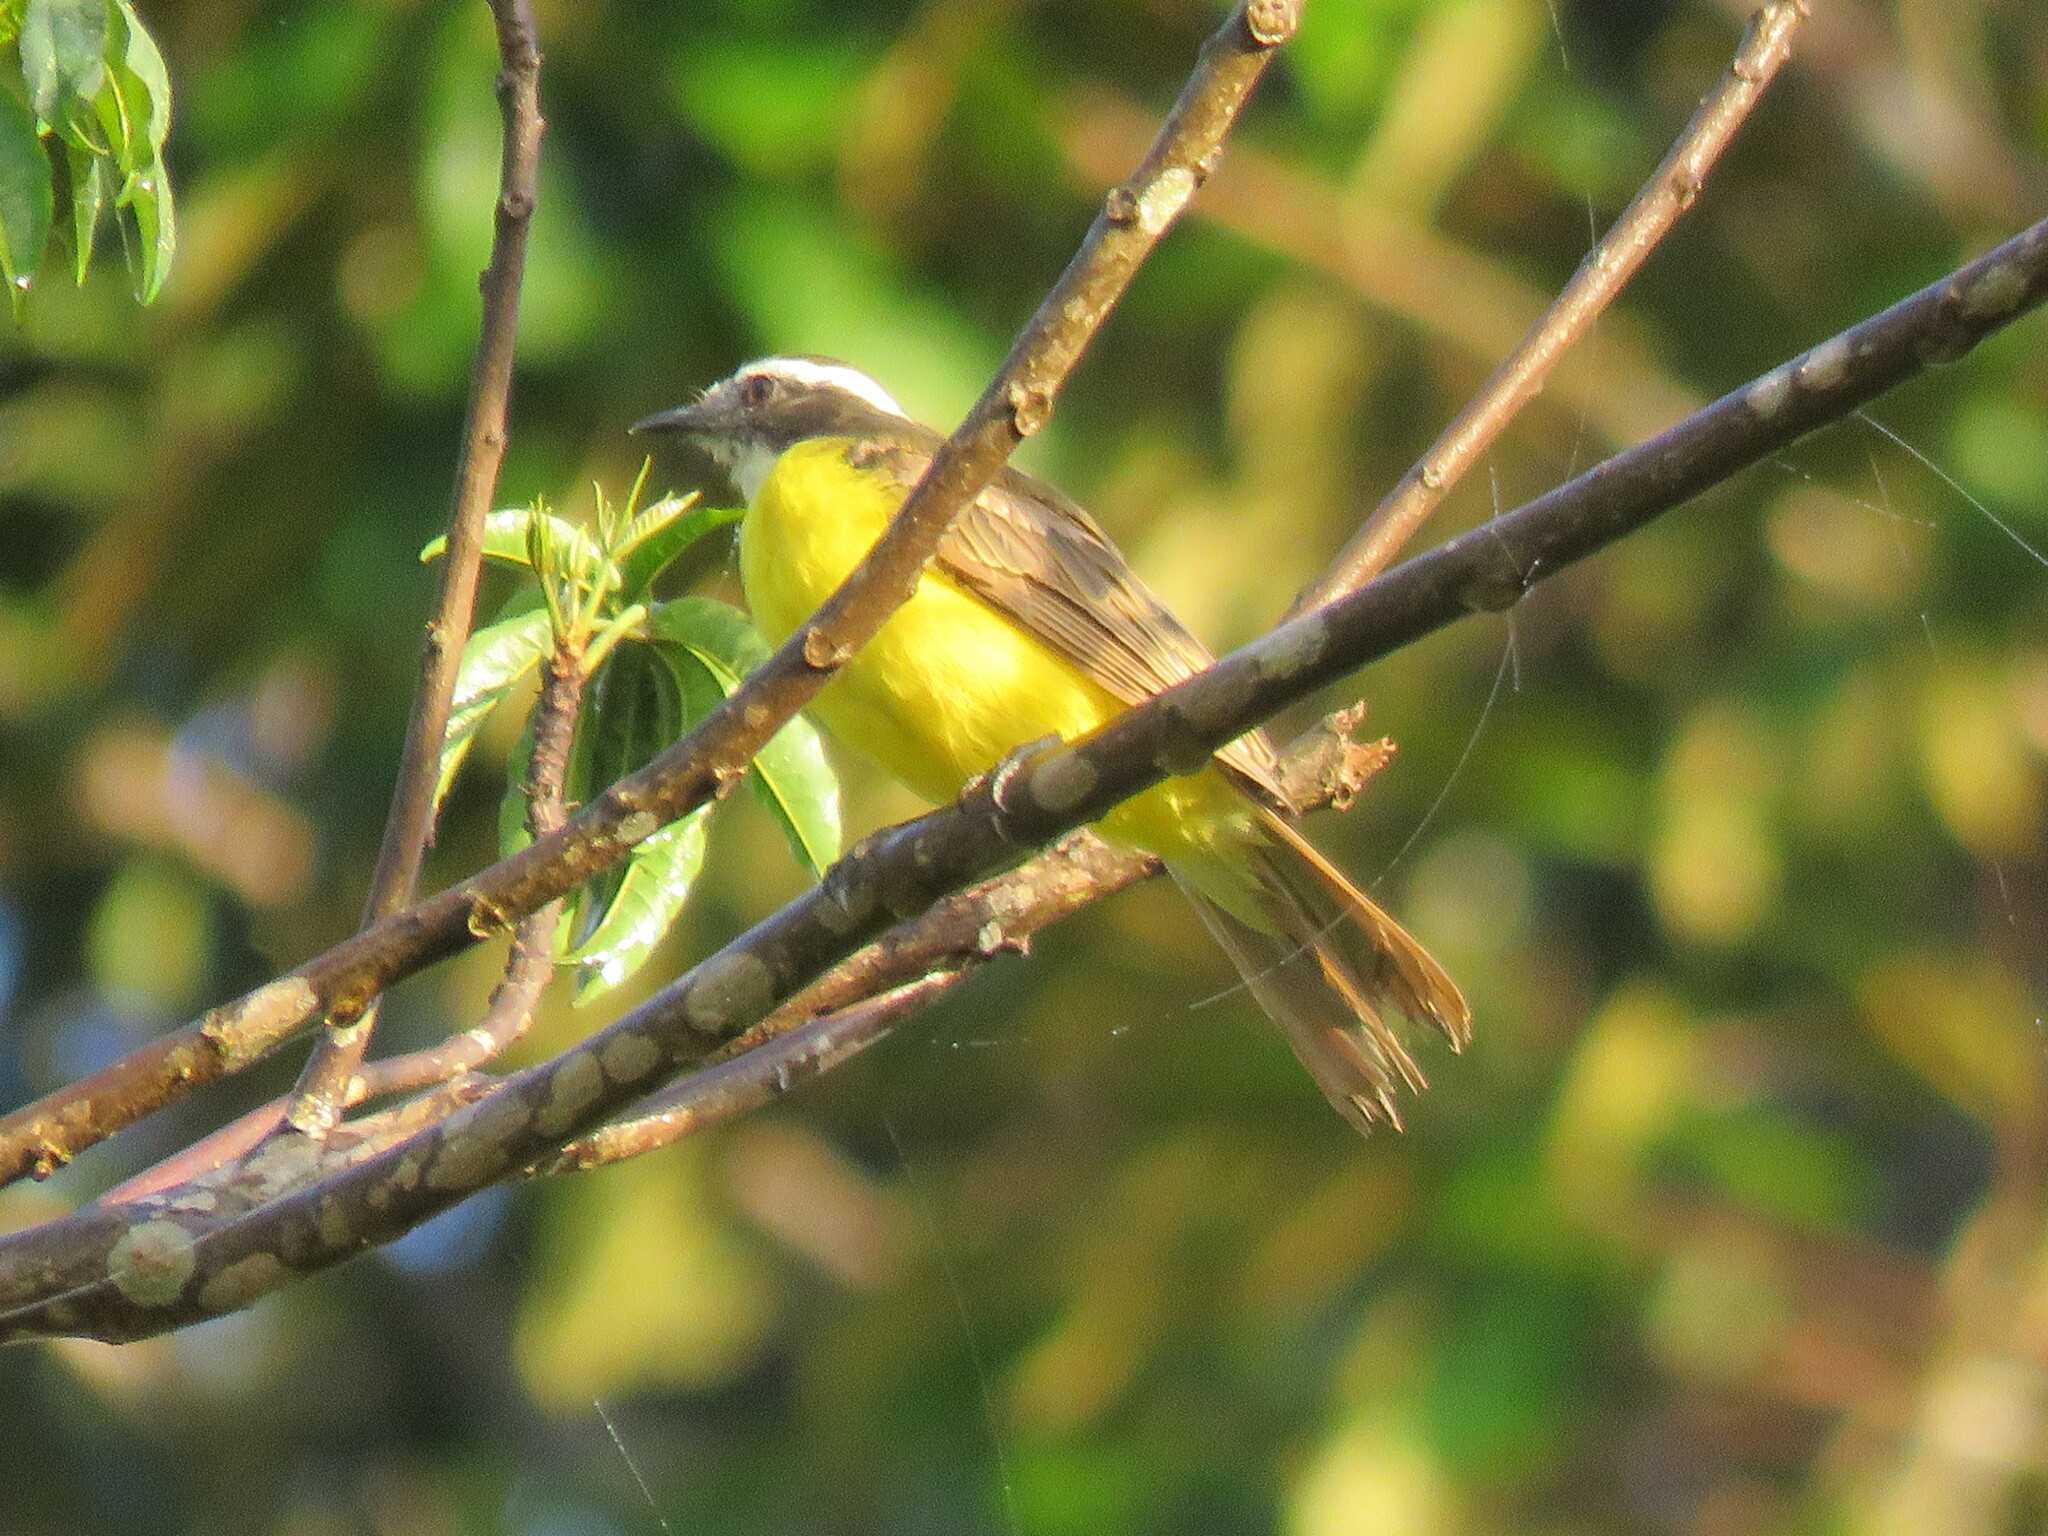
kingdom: Animalia
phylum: Chordata
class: Aves
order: Passeriformes
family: Tyrannidae
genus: Myiozetetes
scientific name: Myiozetetes similis
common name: Social flycatcher
